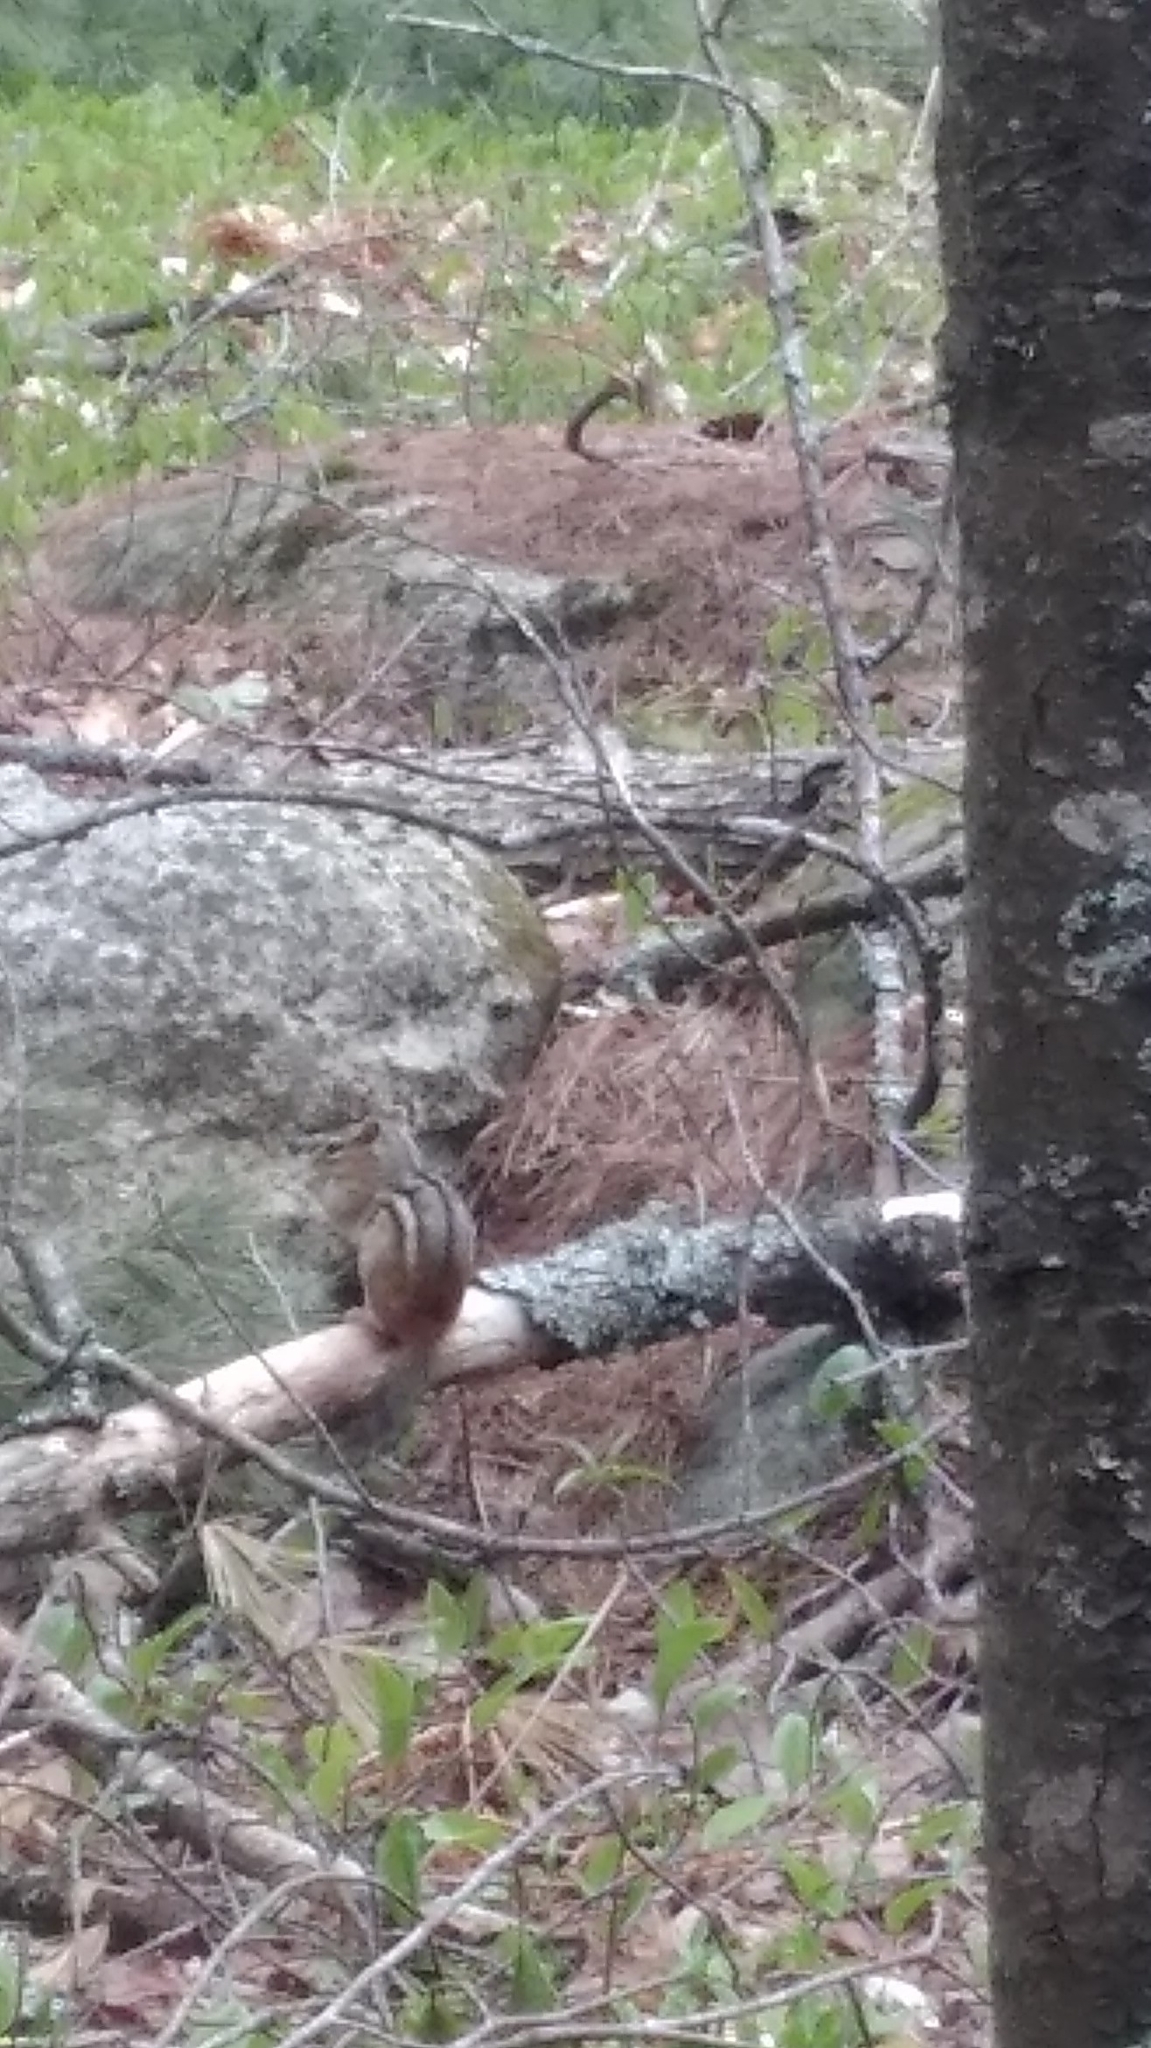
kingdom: Animalia
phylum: Chordata
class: Mammalia
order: Rodentia
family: Sciuridae
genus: Tamias
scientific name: Tamias striatus
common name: Eastern chipmunk
